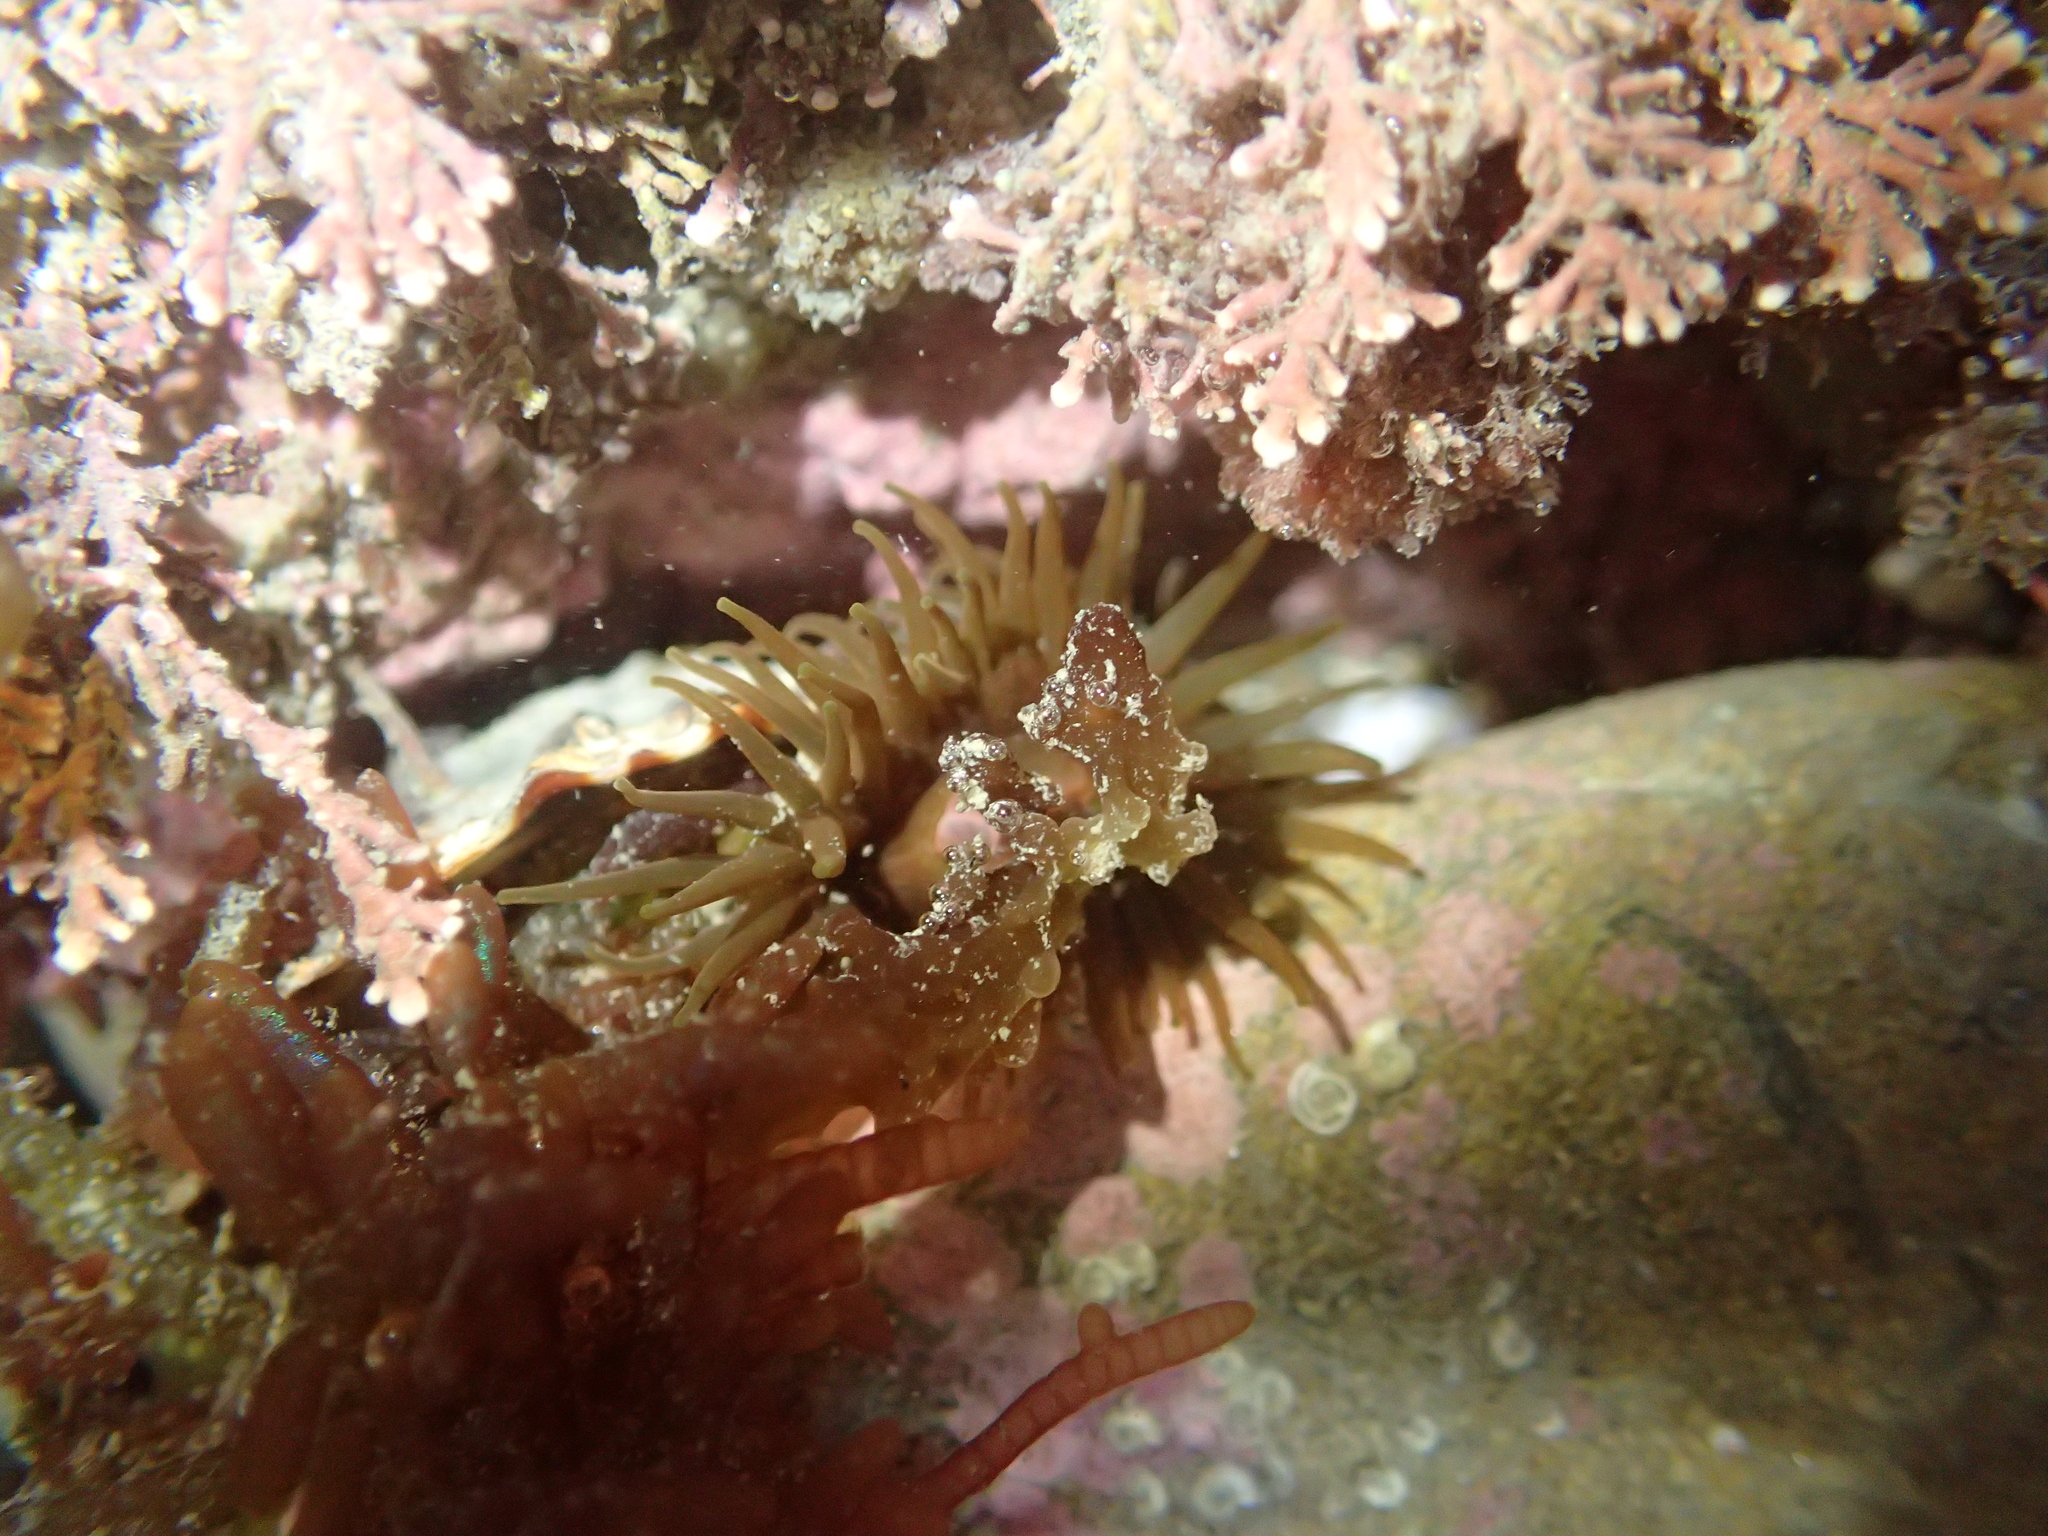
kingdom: Animalia
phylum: Cnidaria
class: Anthozoa
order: Actiniaria
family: Actiniidae
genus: Isactinia
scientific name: Isactinia olivacea
